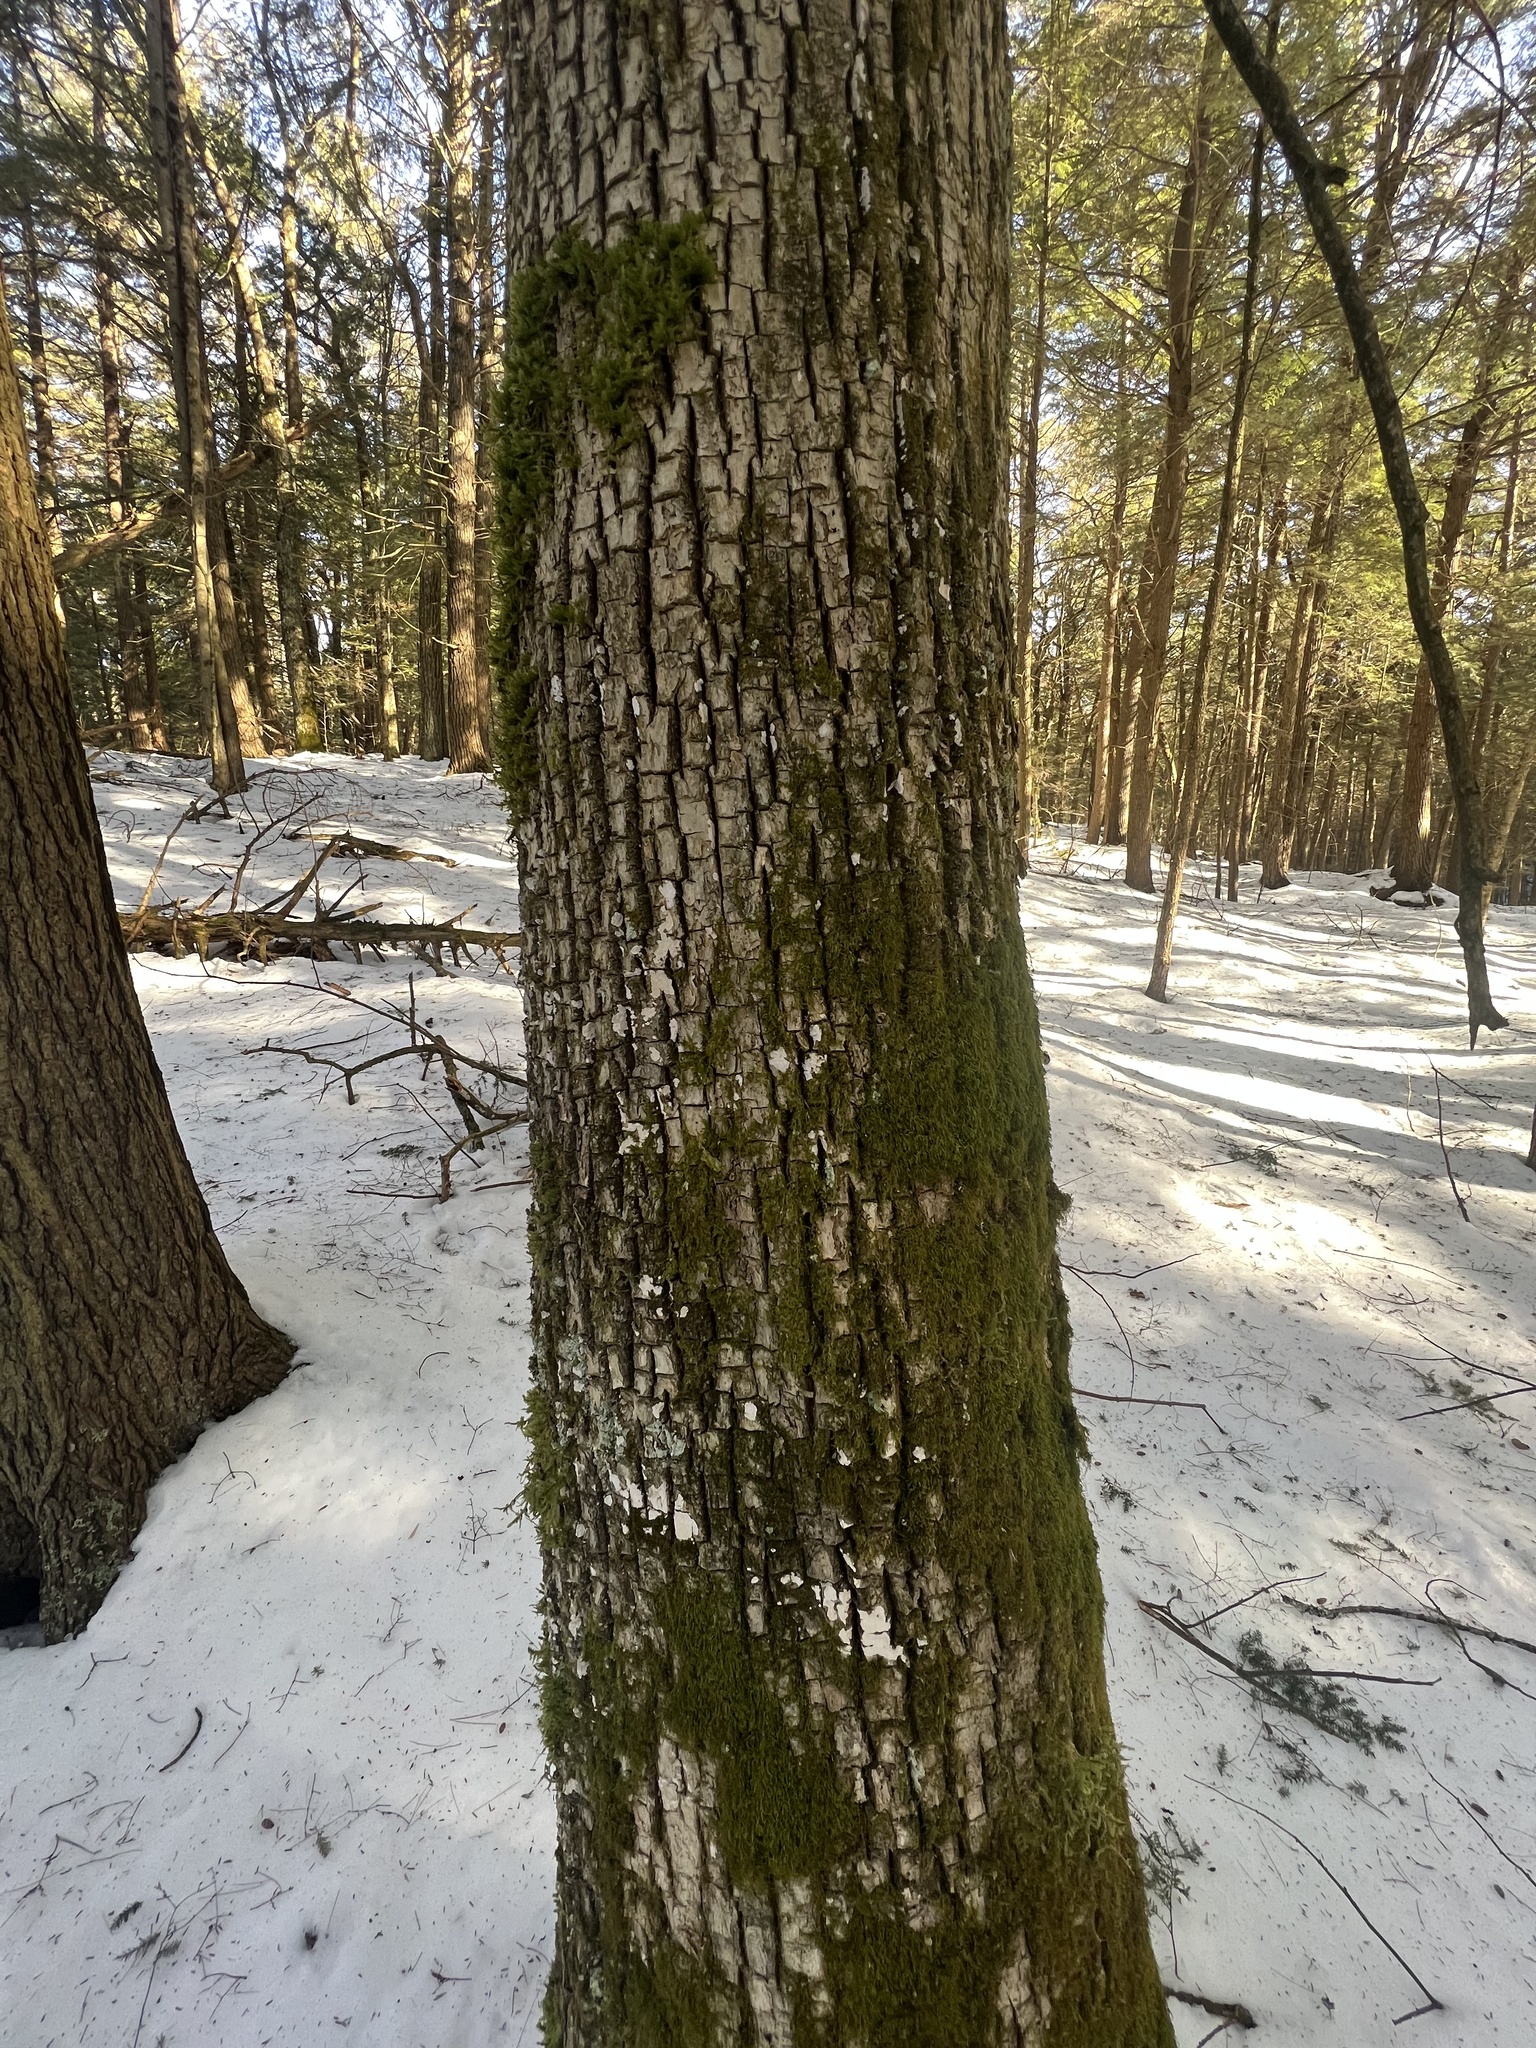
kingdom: Plantae
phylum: Bryophyta
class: Bryopsida
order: Hypnales
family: Thuidiaceae
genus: Abietinella
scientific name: Abietinella abietina
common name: Wiry fern moss
